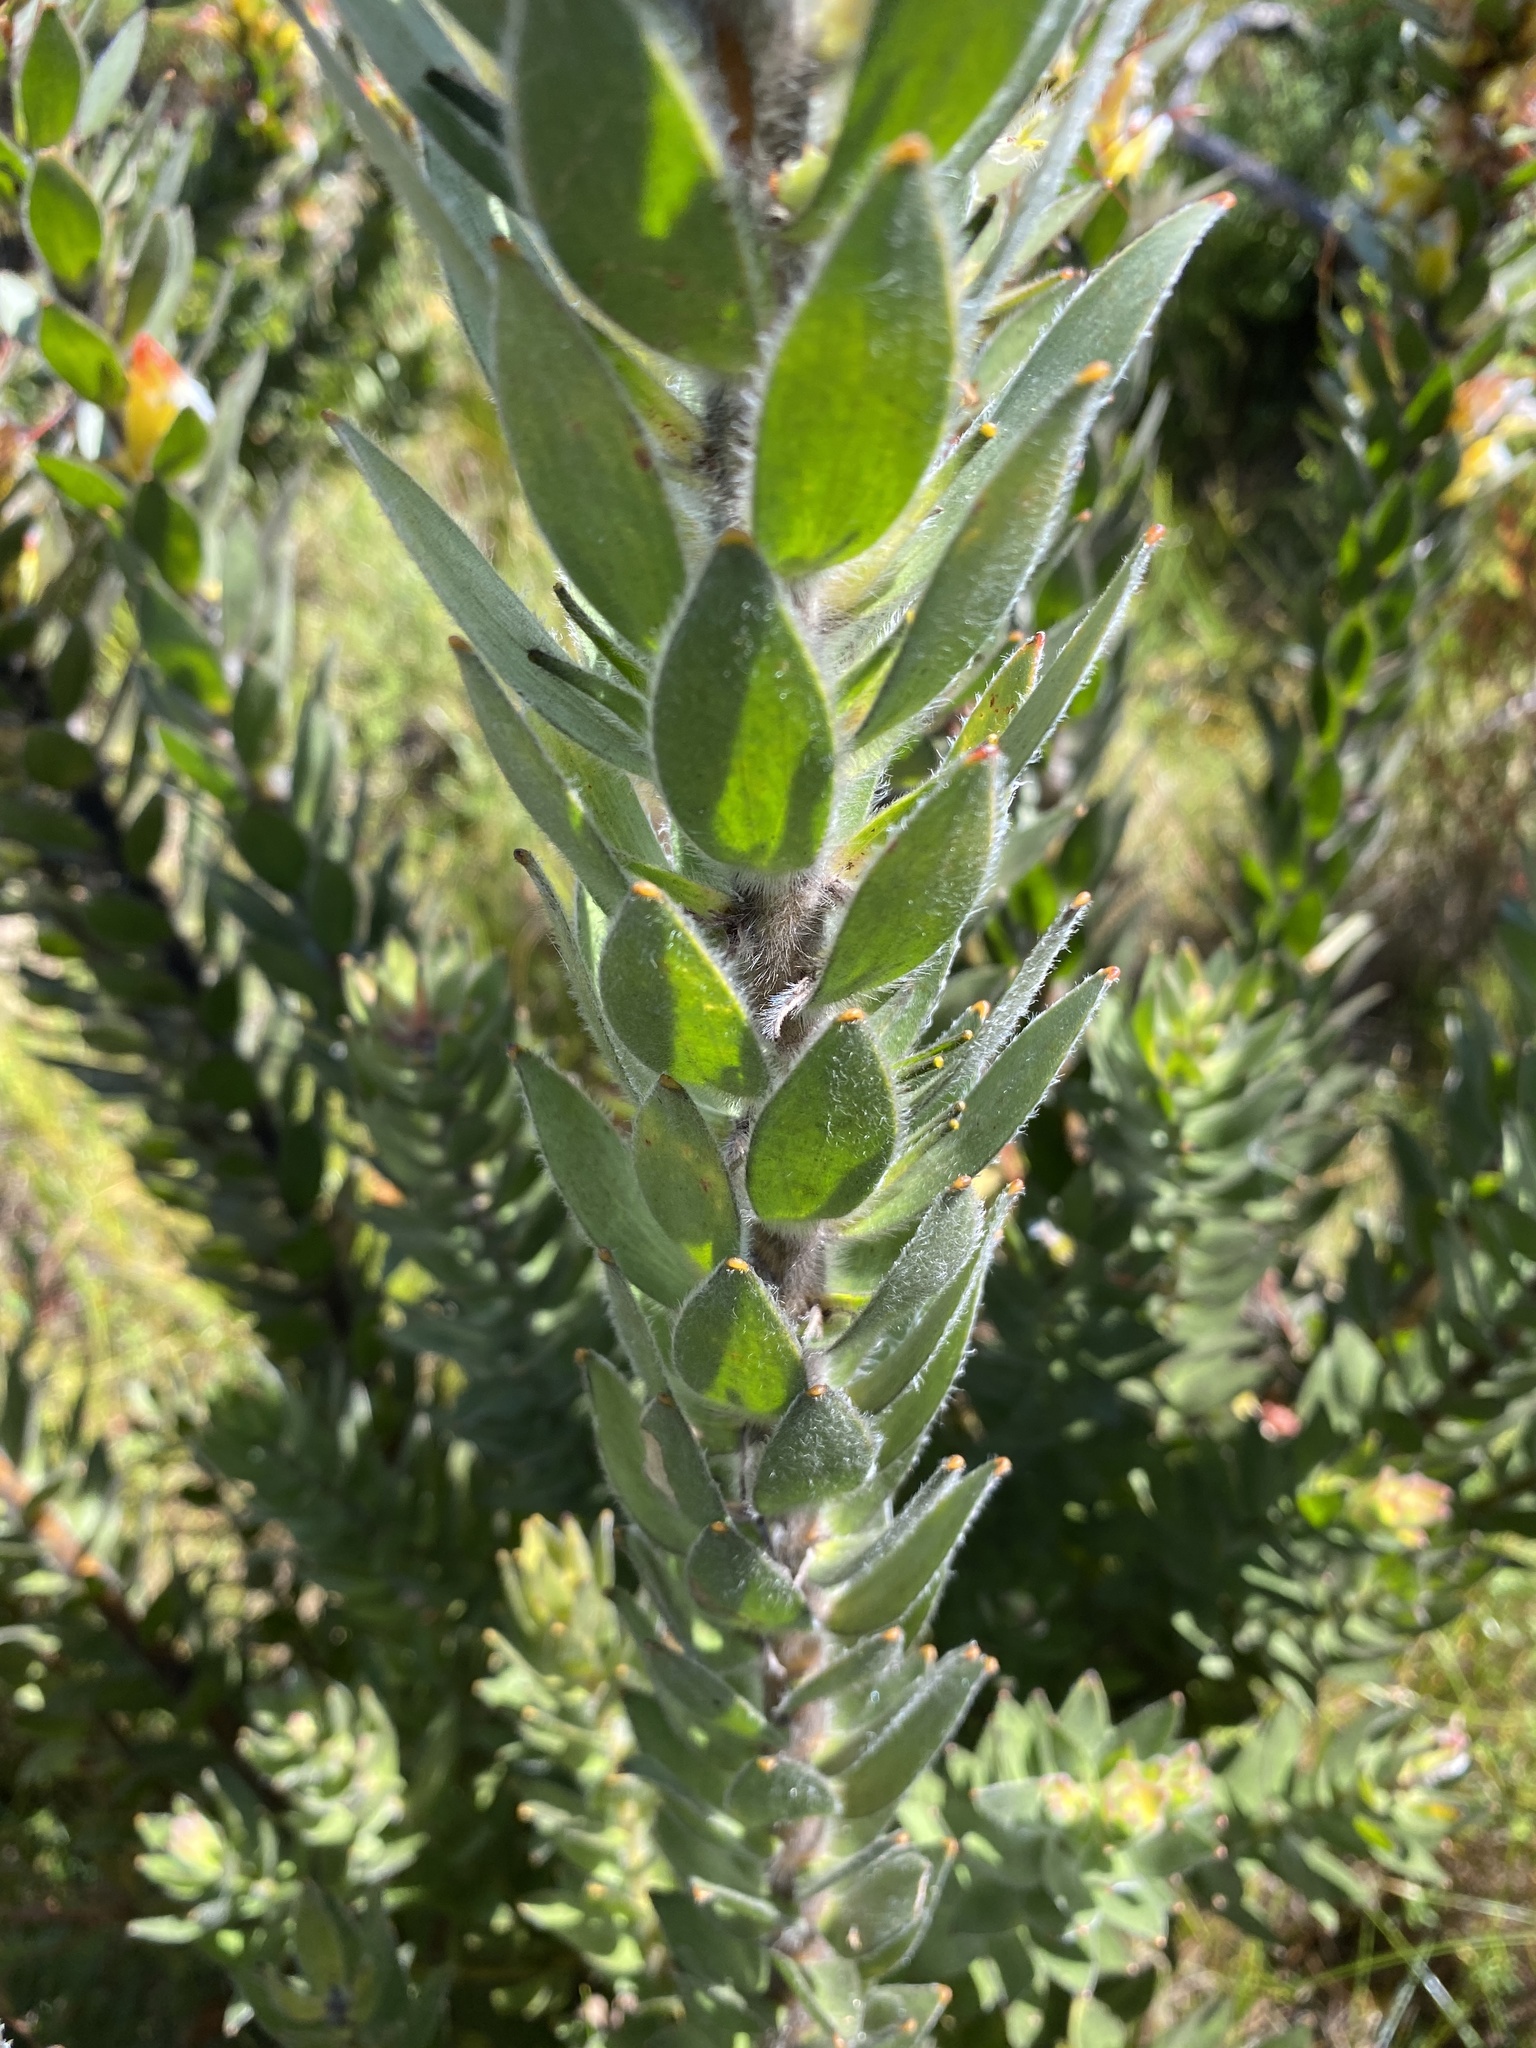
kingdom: Plantae
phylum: Tracheophyta
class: Magnoliopsida
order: Proteales
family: Proteaceae
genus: Mimetes
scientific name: Mimetes hirtus
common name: Marsh pagoda
